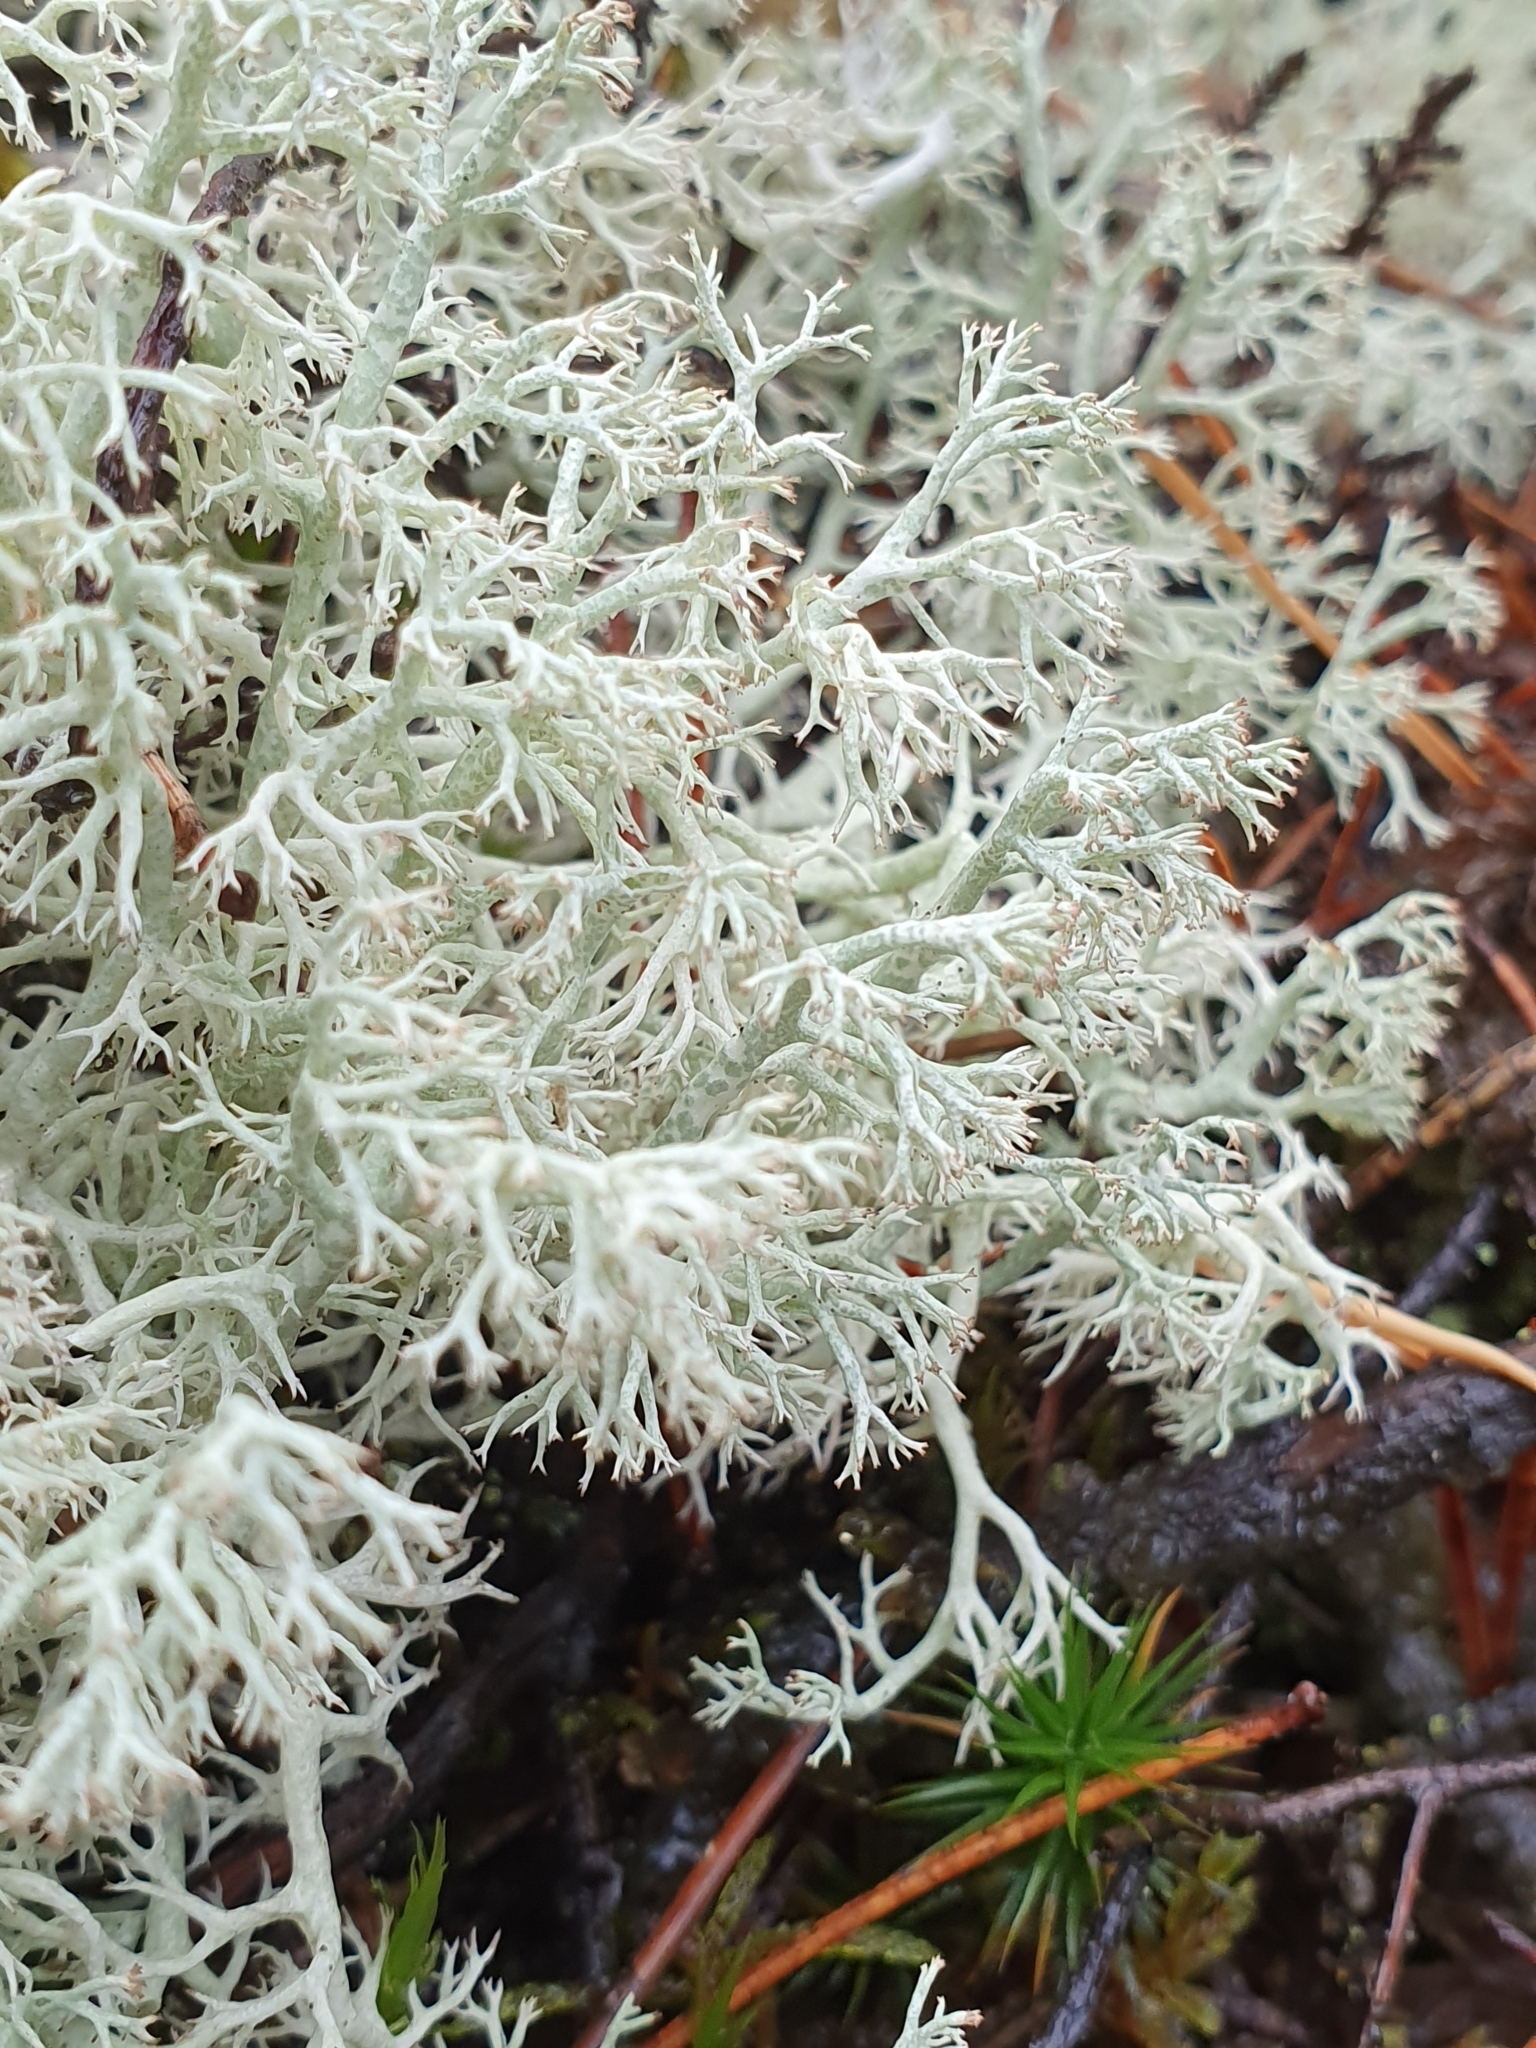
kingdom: Fungi
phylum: Ascomycota
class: Lecanoromycetes
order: Lecanorales
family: Cladoniaceae
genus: Cladonia
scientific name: Cladonia arbuscula
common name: Reindeer lichen
